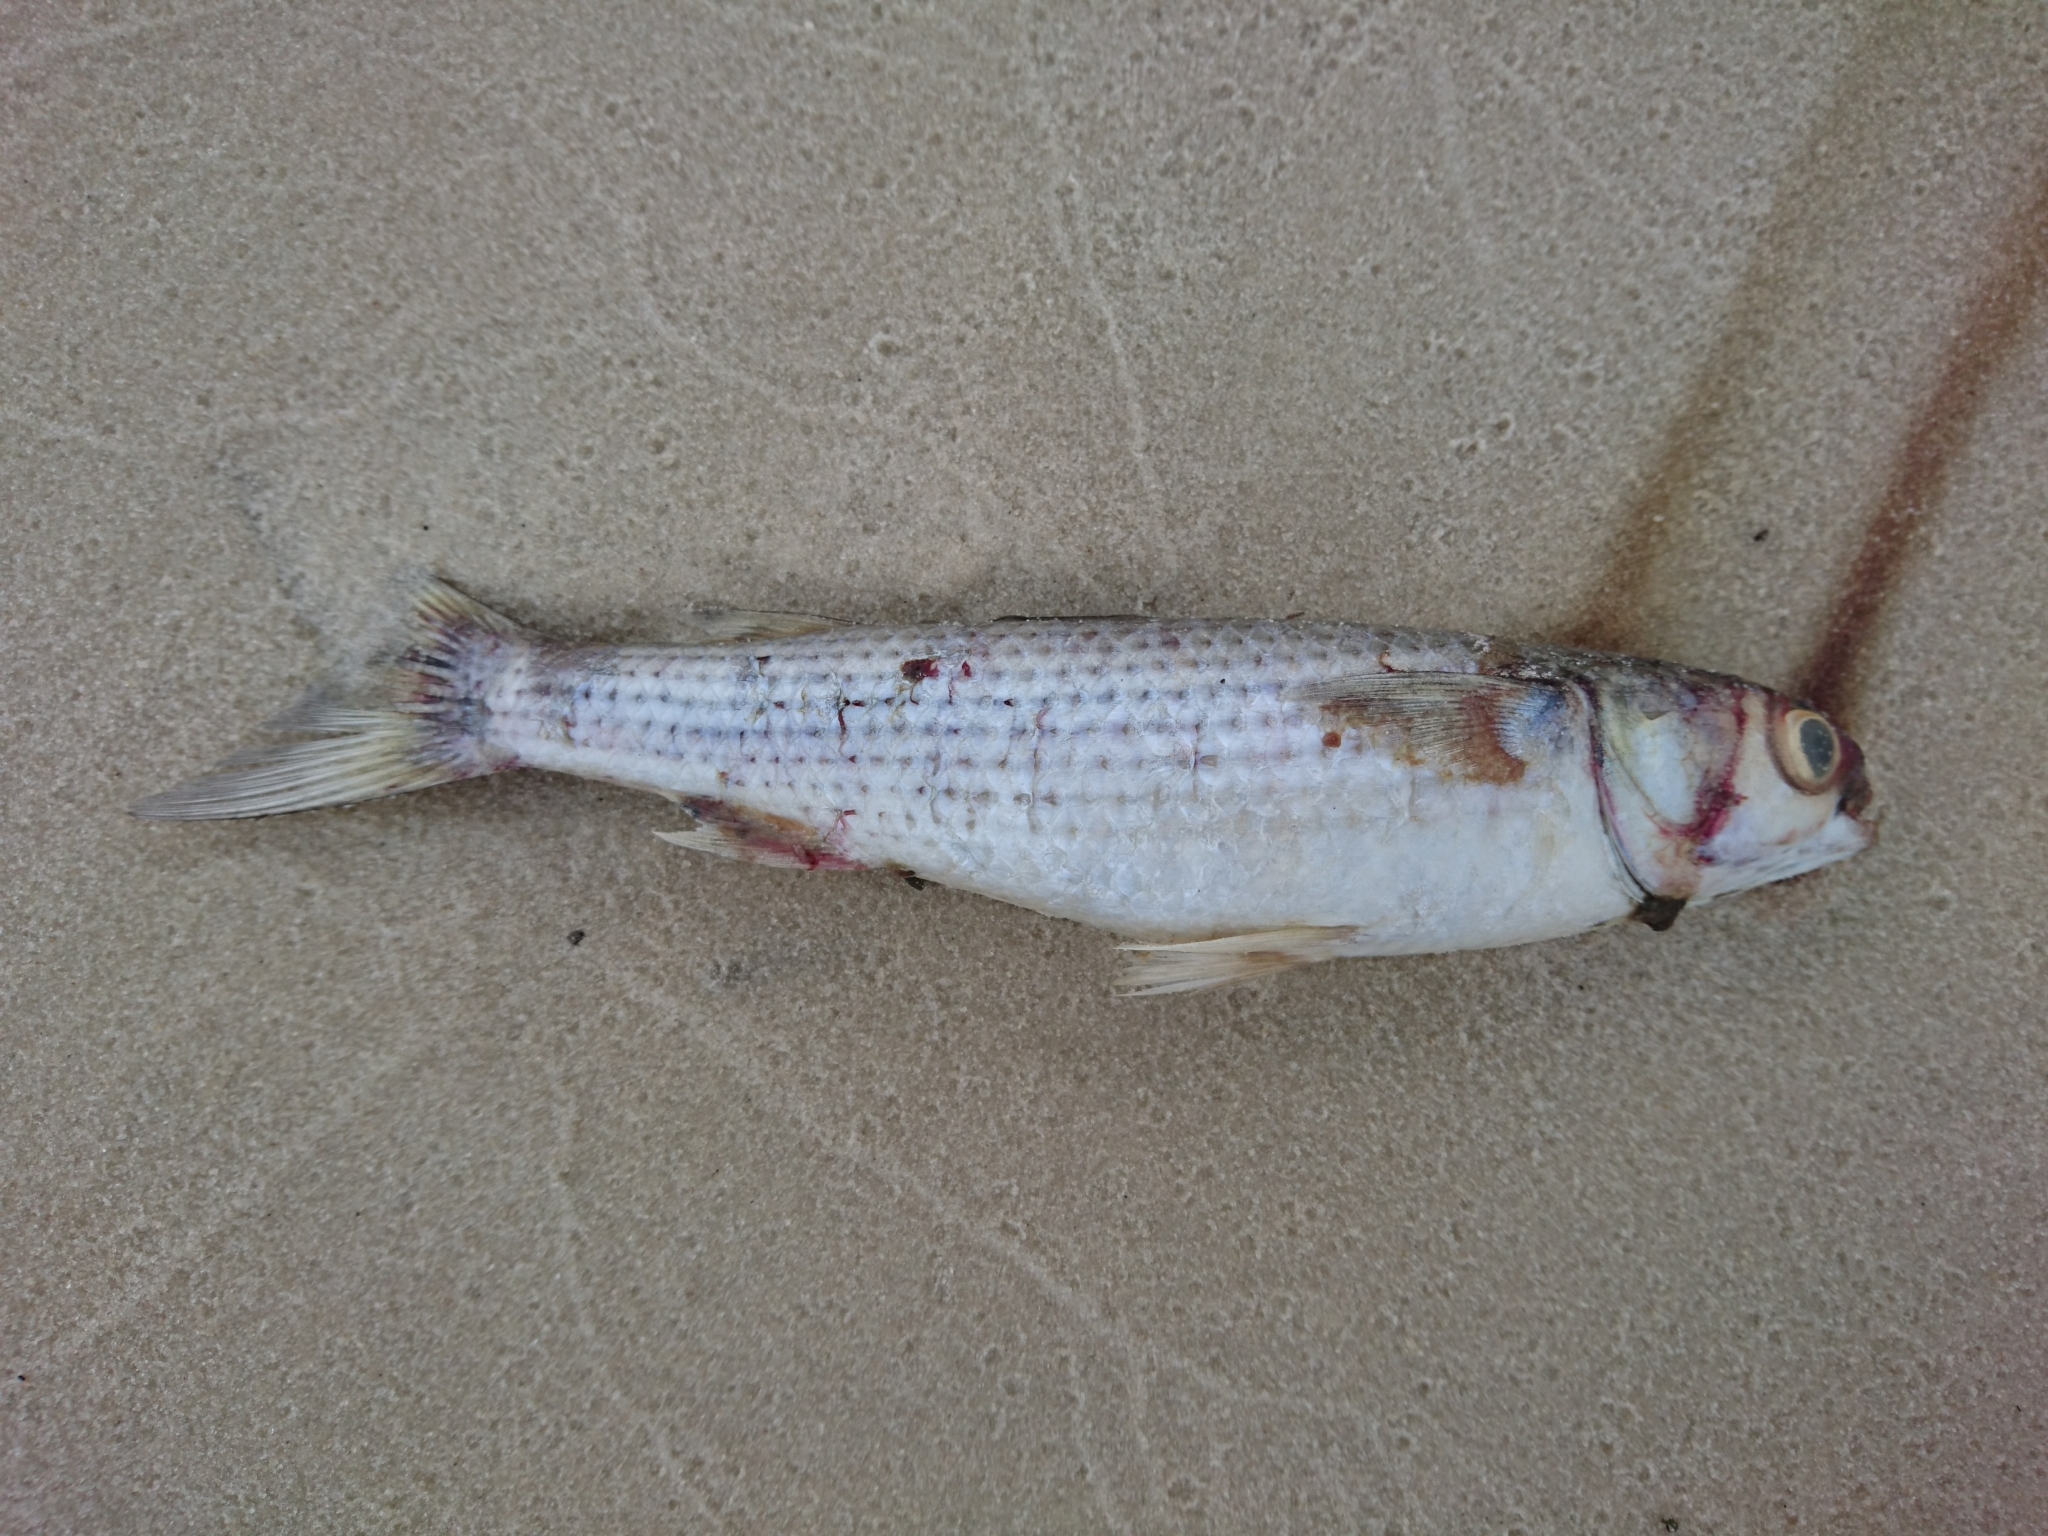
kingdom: Animalia
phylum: Chordata
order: Mugiliformes
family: Mugilidae
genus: Mugil
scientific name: Mugil cephalus
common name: Grey mullet
